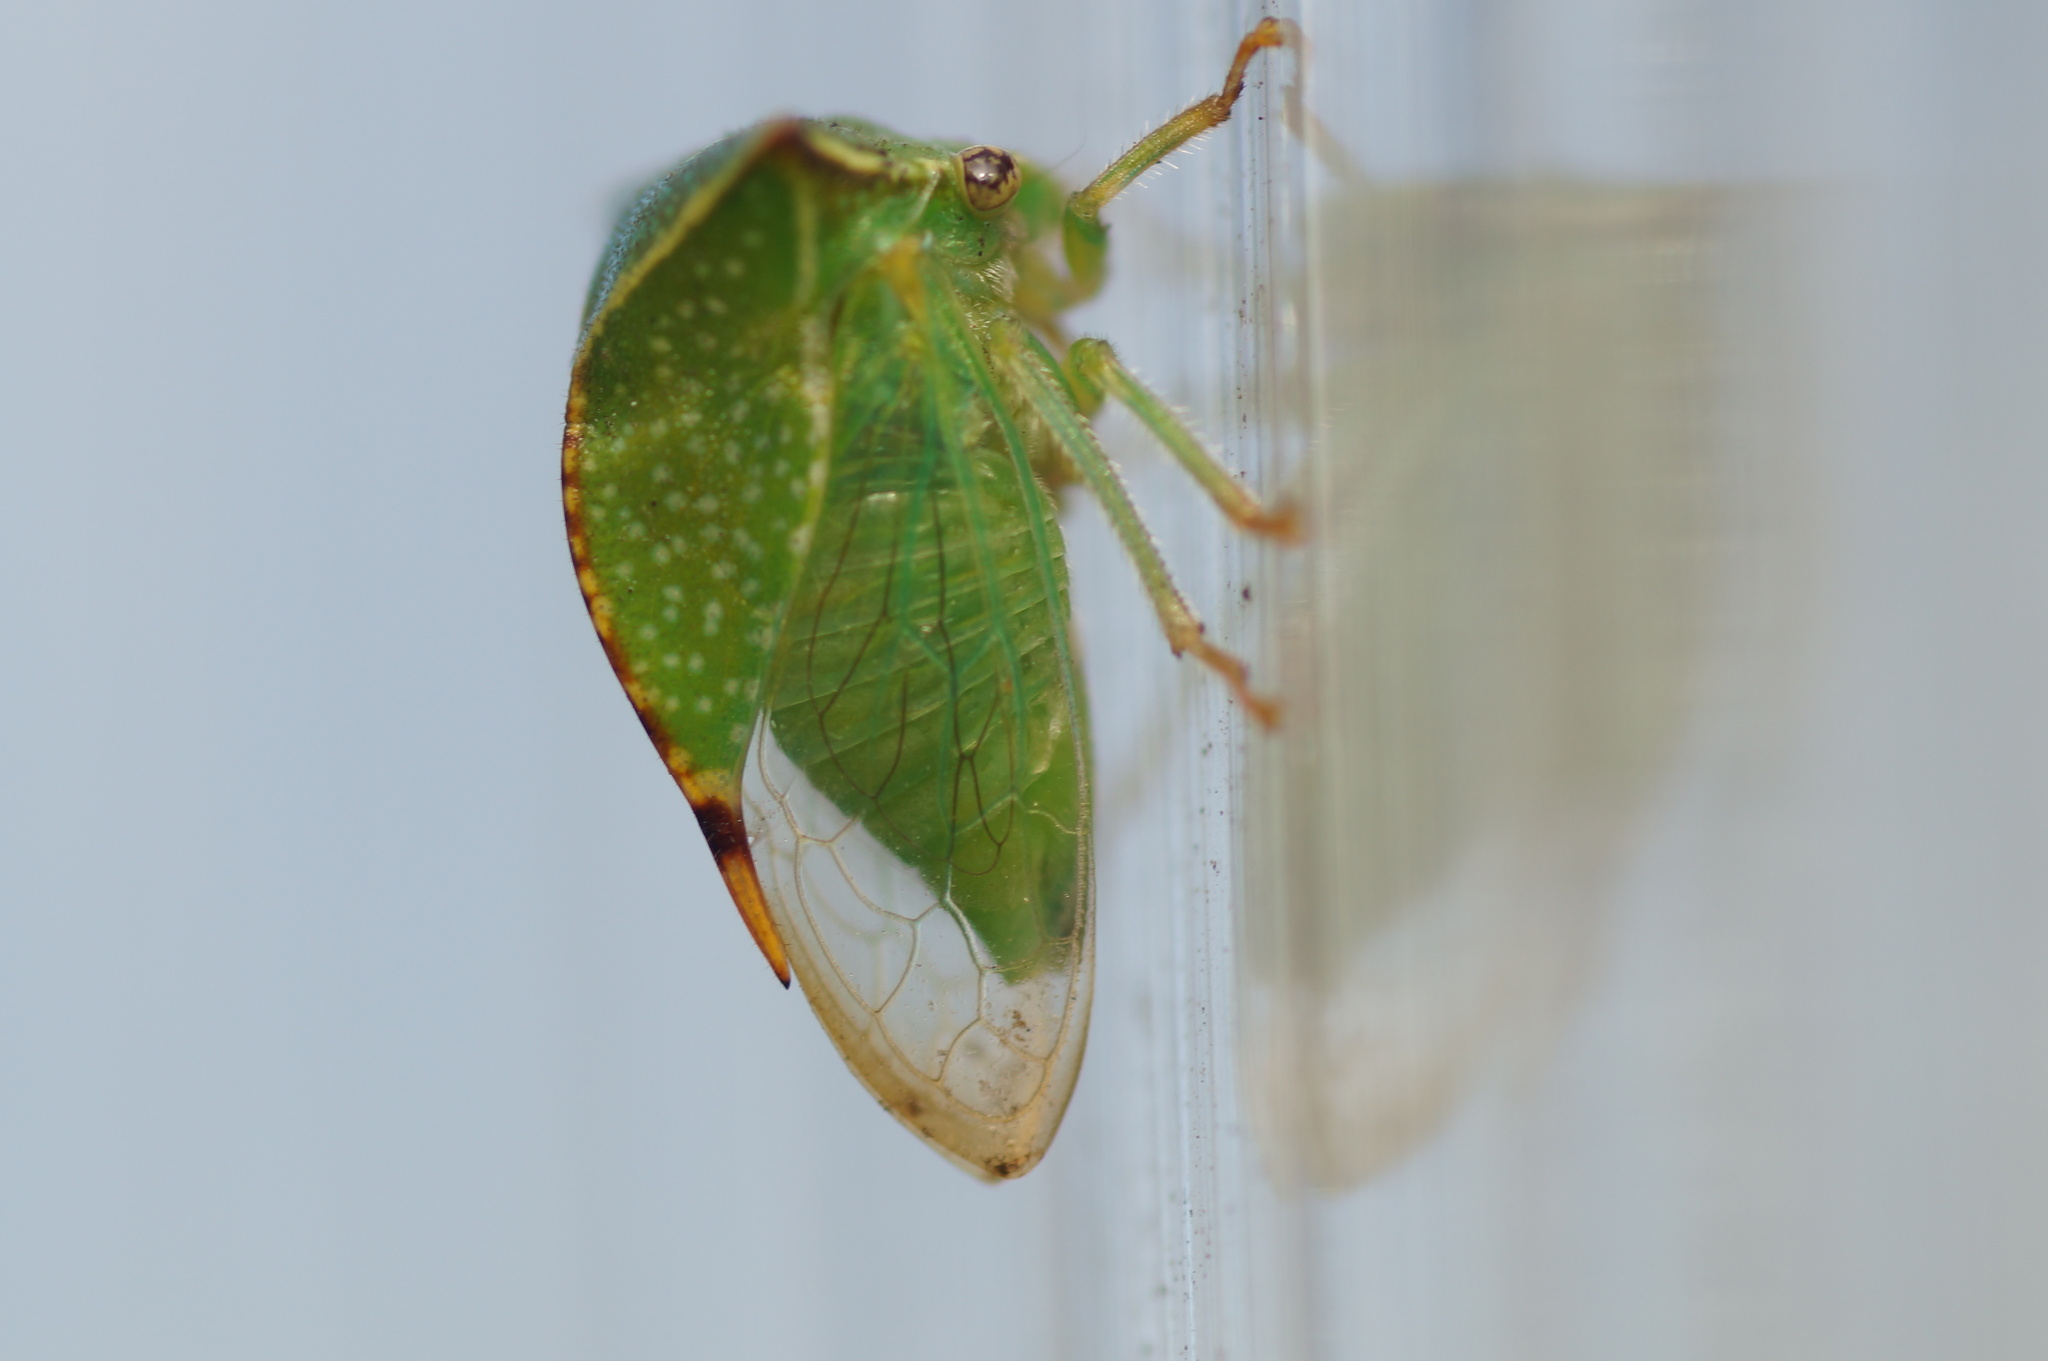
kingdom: Animalia
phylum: Arthropoda
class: Insecta
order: Hemiptera
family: Membracidae
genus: Stictocephala
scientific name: Stictocephala bisonia
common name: American buffalo treehopper
